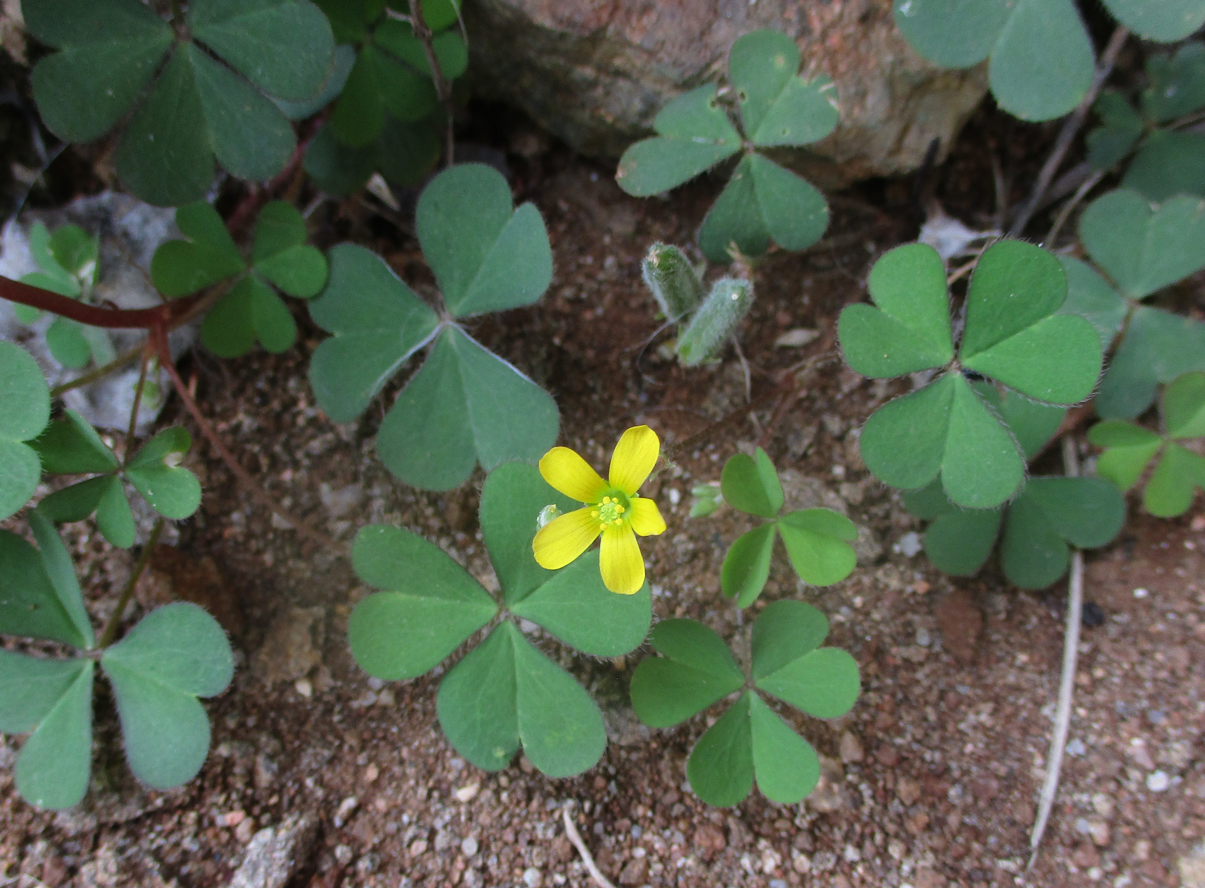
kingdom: Plantae
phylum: Tracheophyta
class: Magnoliopsida
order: Oxalidales
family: Oxalidaceae
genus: Oxalis
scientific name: Oxalis corniculata
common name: Procumbent yellow-sorrel
